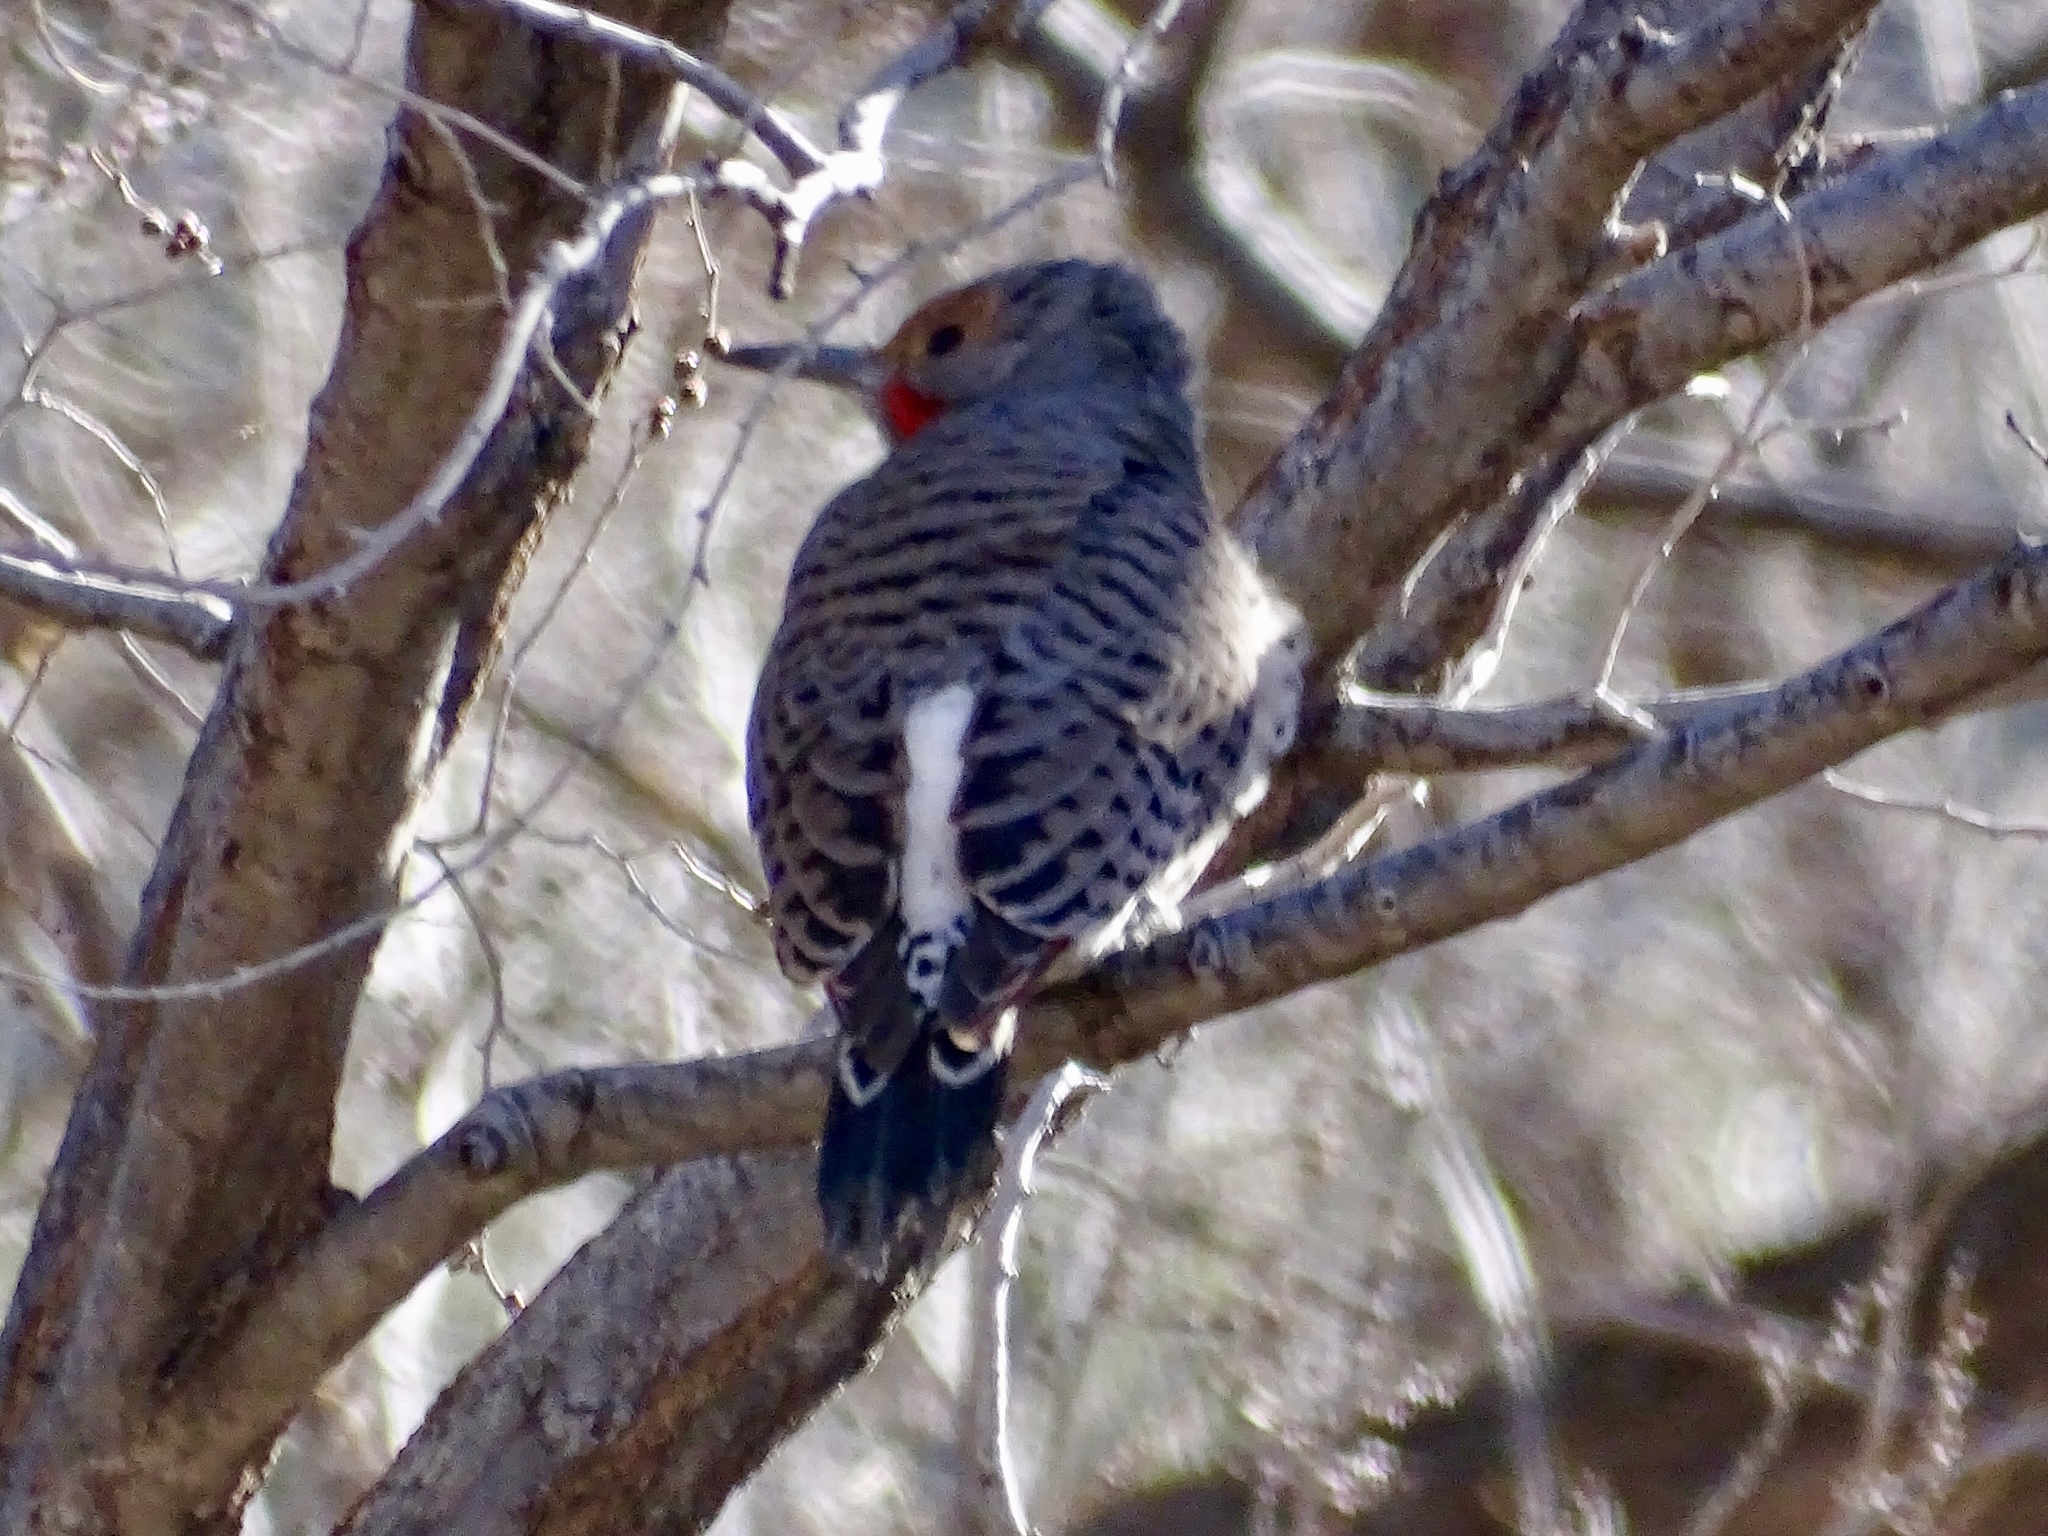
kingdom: Animalia
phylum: Chordata
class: Aves
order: Piciformes
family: Picidae
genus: Colaptes
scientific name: Colaptes auratus
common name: Northern flicker
